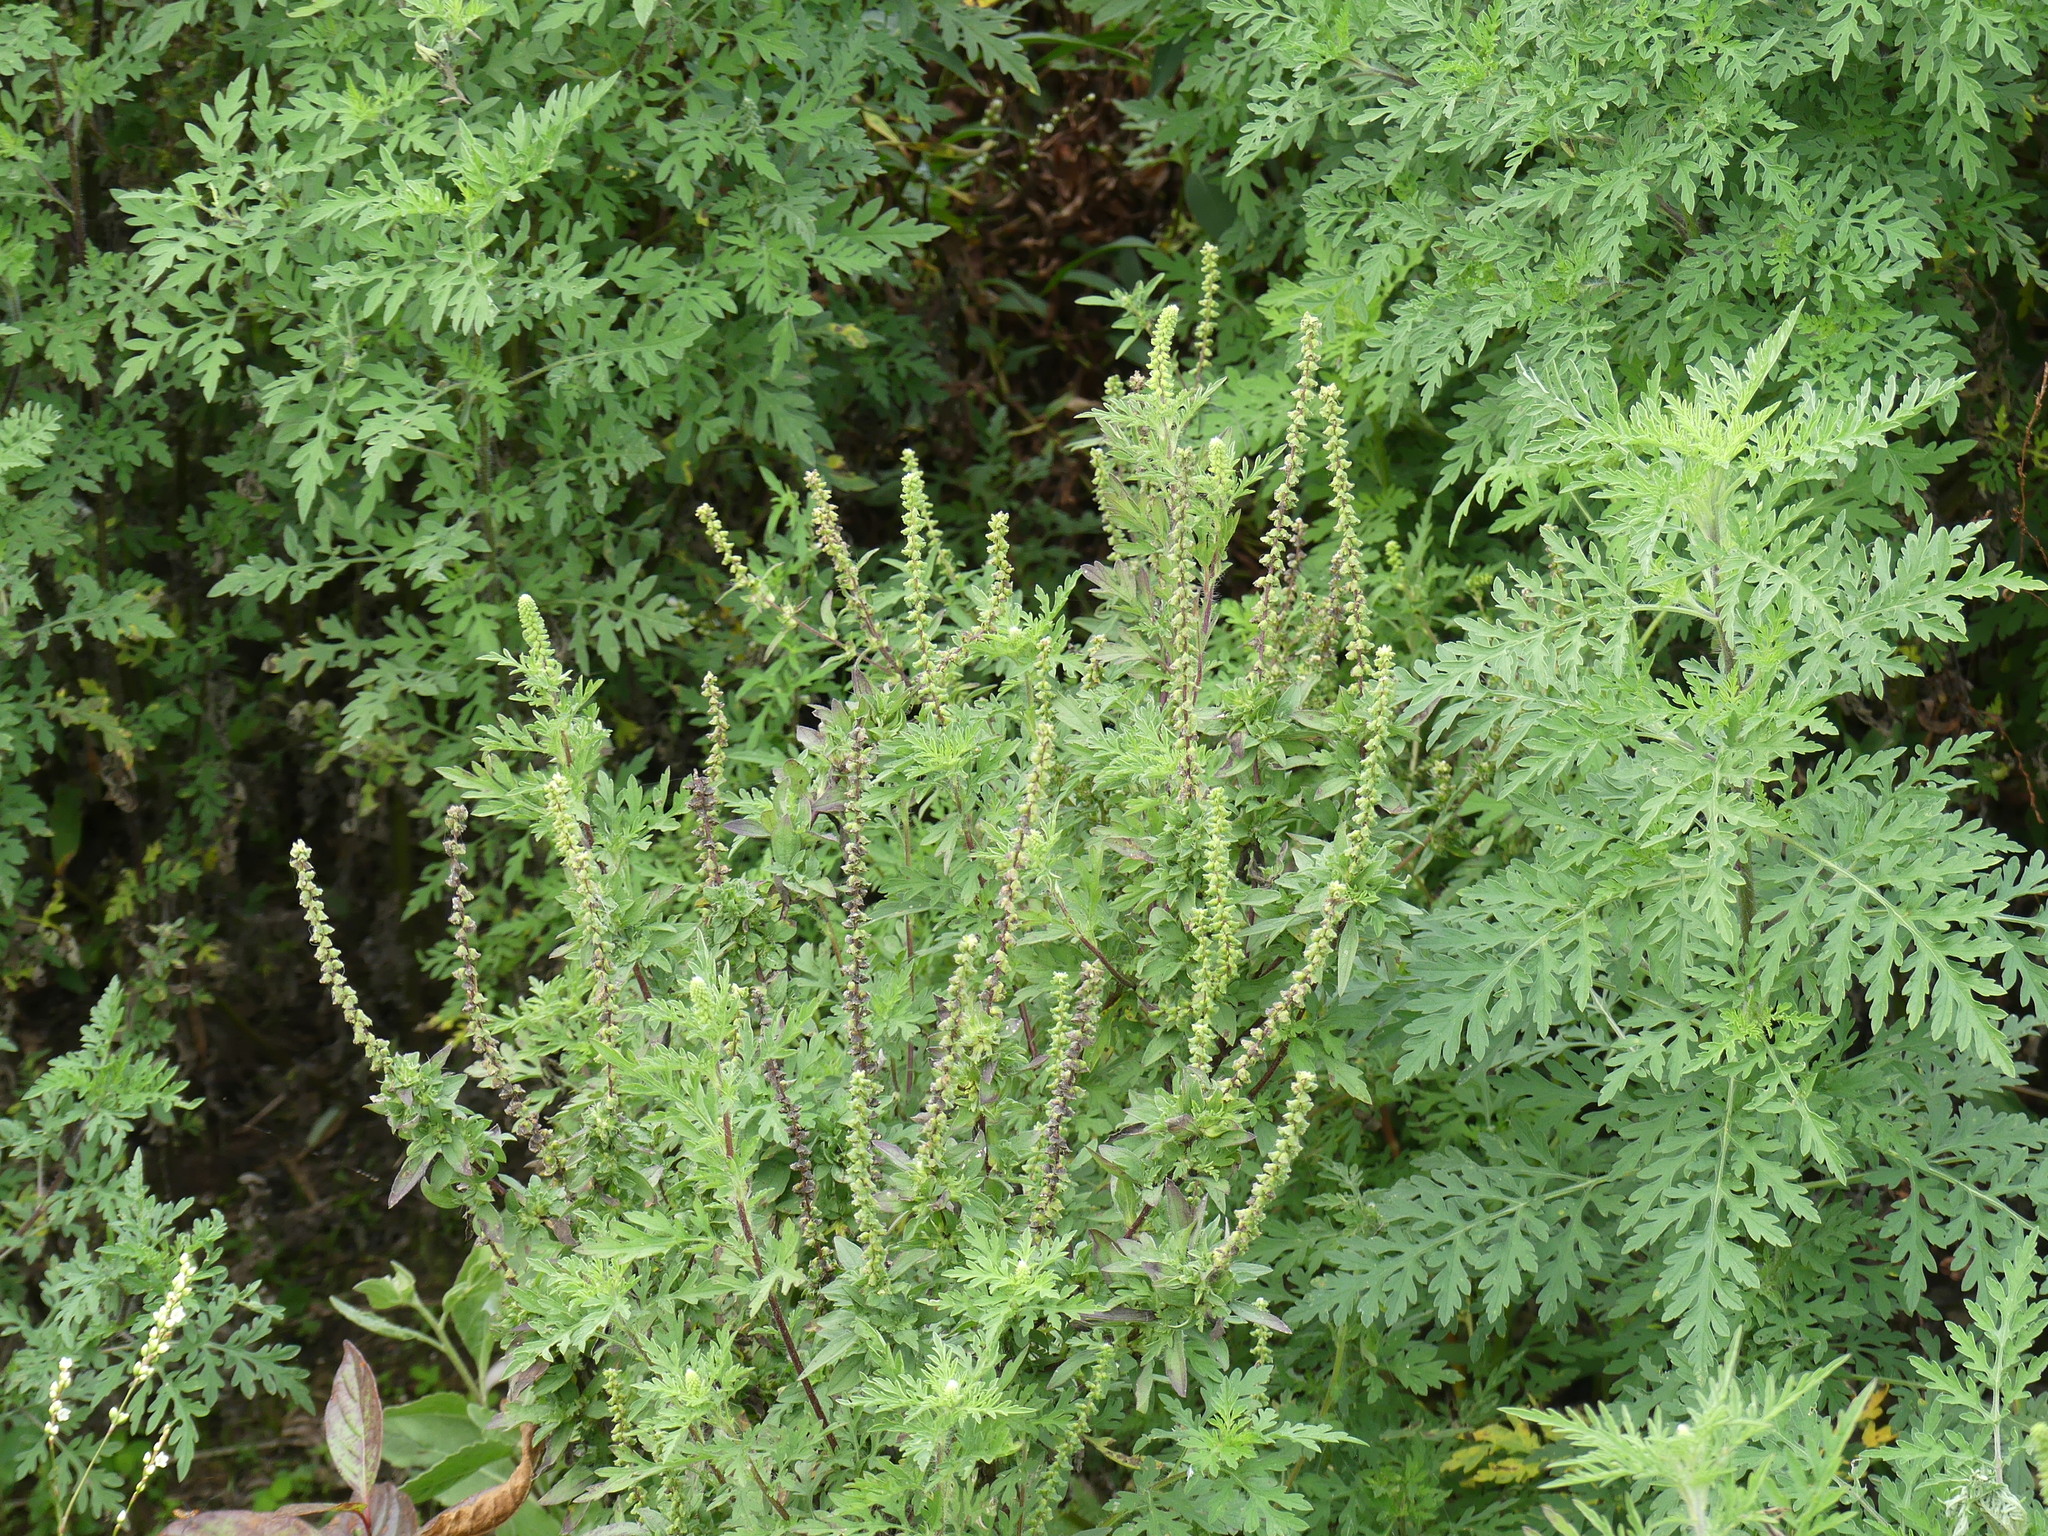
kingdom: Plantae
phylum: Tracheophyta
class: Magnoliopsida
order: Asterales
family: Asteraceae
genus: Ambrosia
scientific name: Ambrosia artemisiifolia
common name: Annual ragweed
